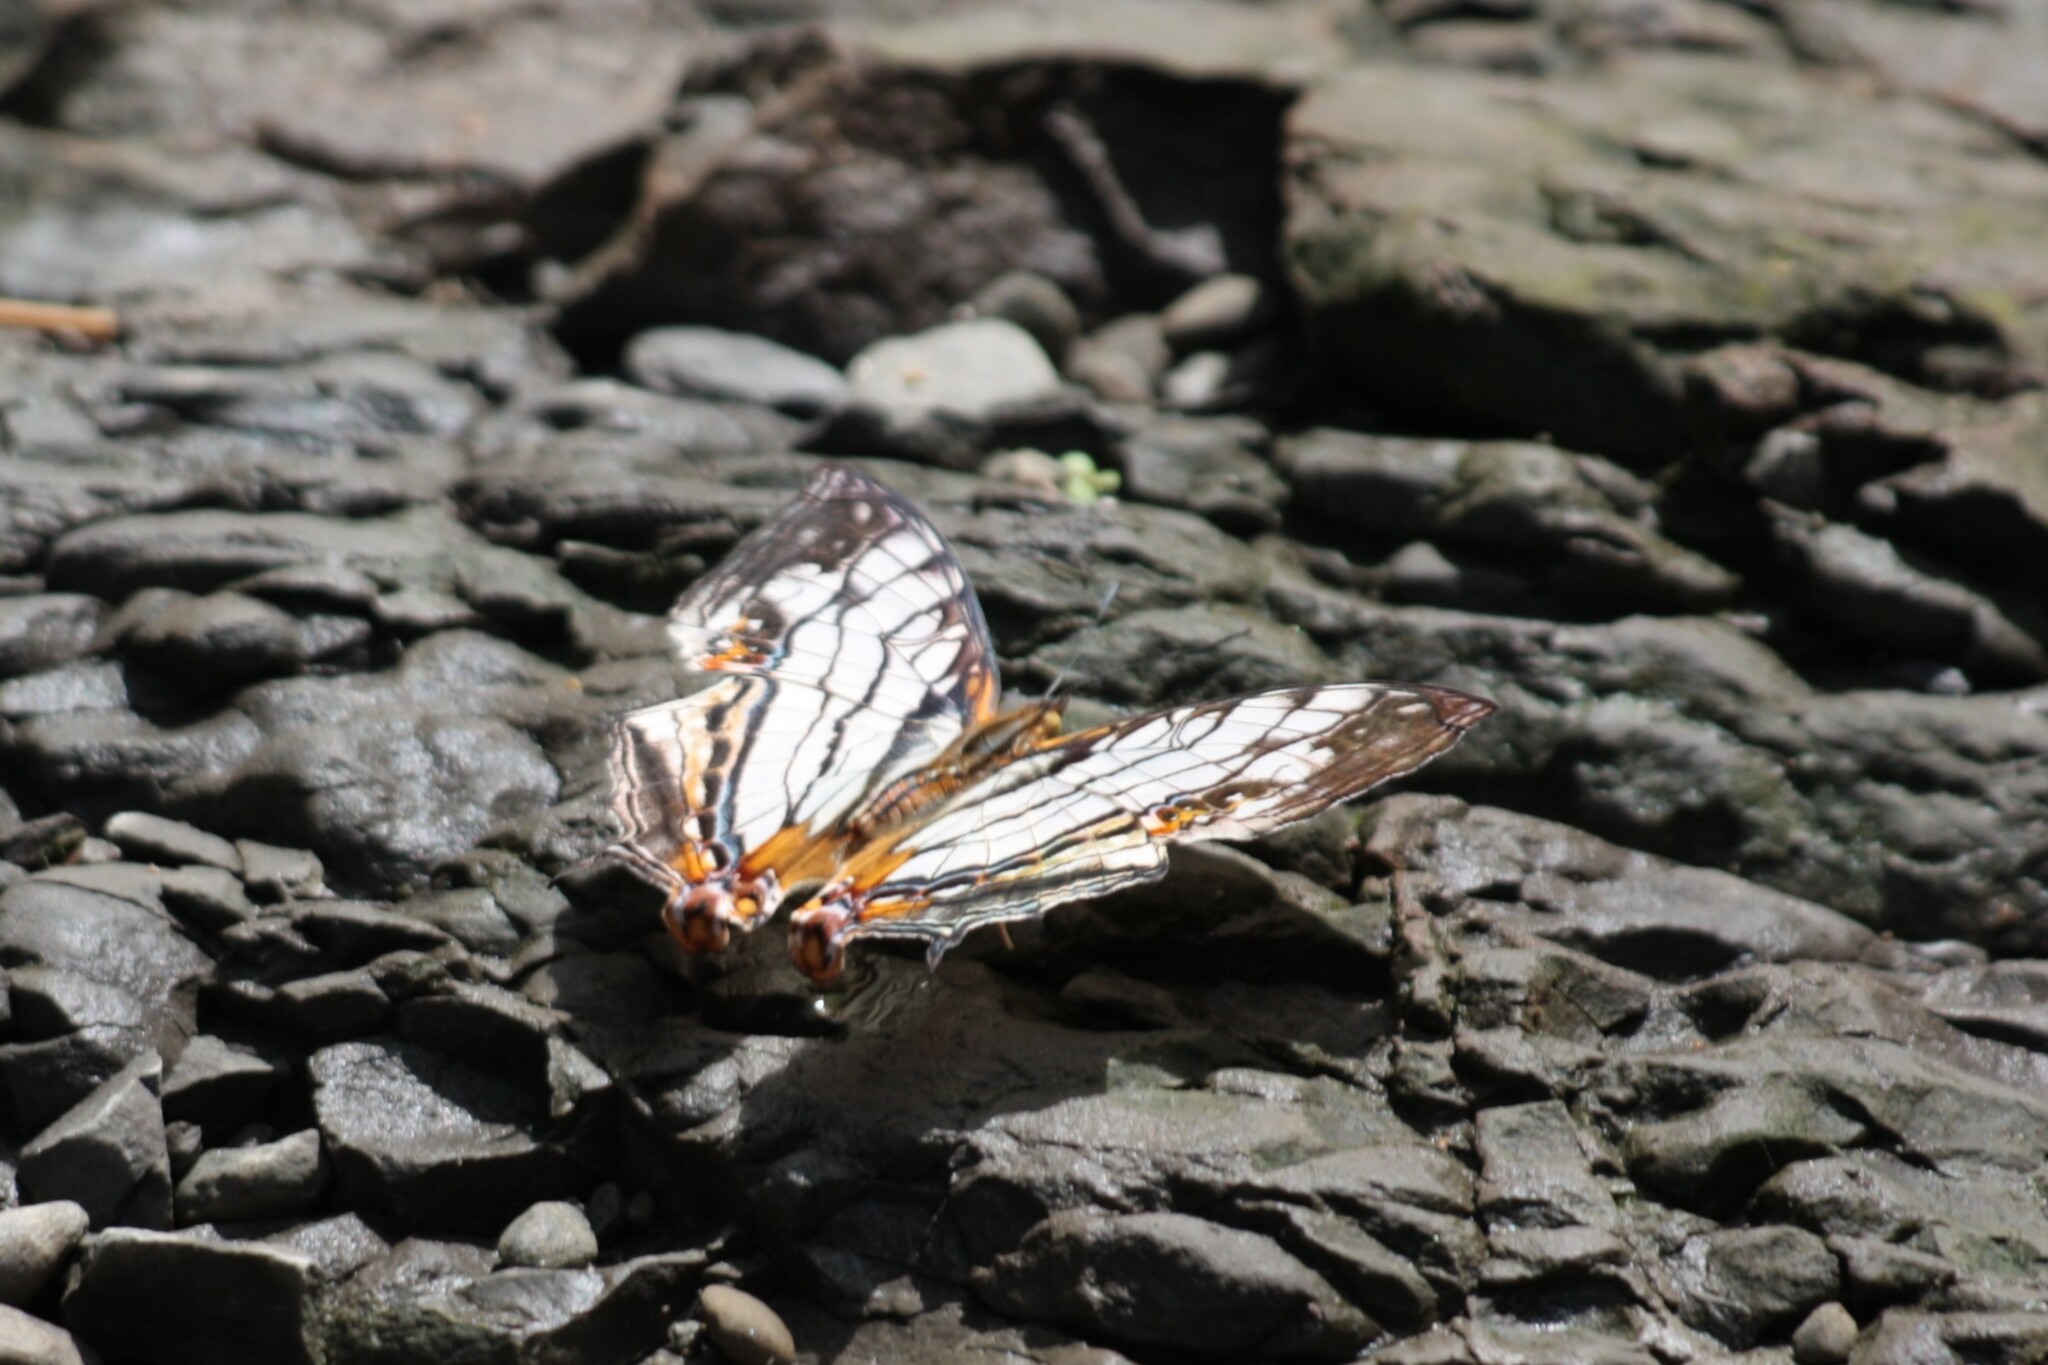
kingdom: Animalia
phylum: Arthropoda
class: Insecta
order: Lepidoptera
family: Nymphalidae
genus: Cyrestis
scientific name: Cyrestis thyodamas
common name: Common mapwing
